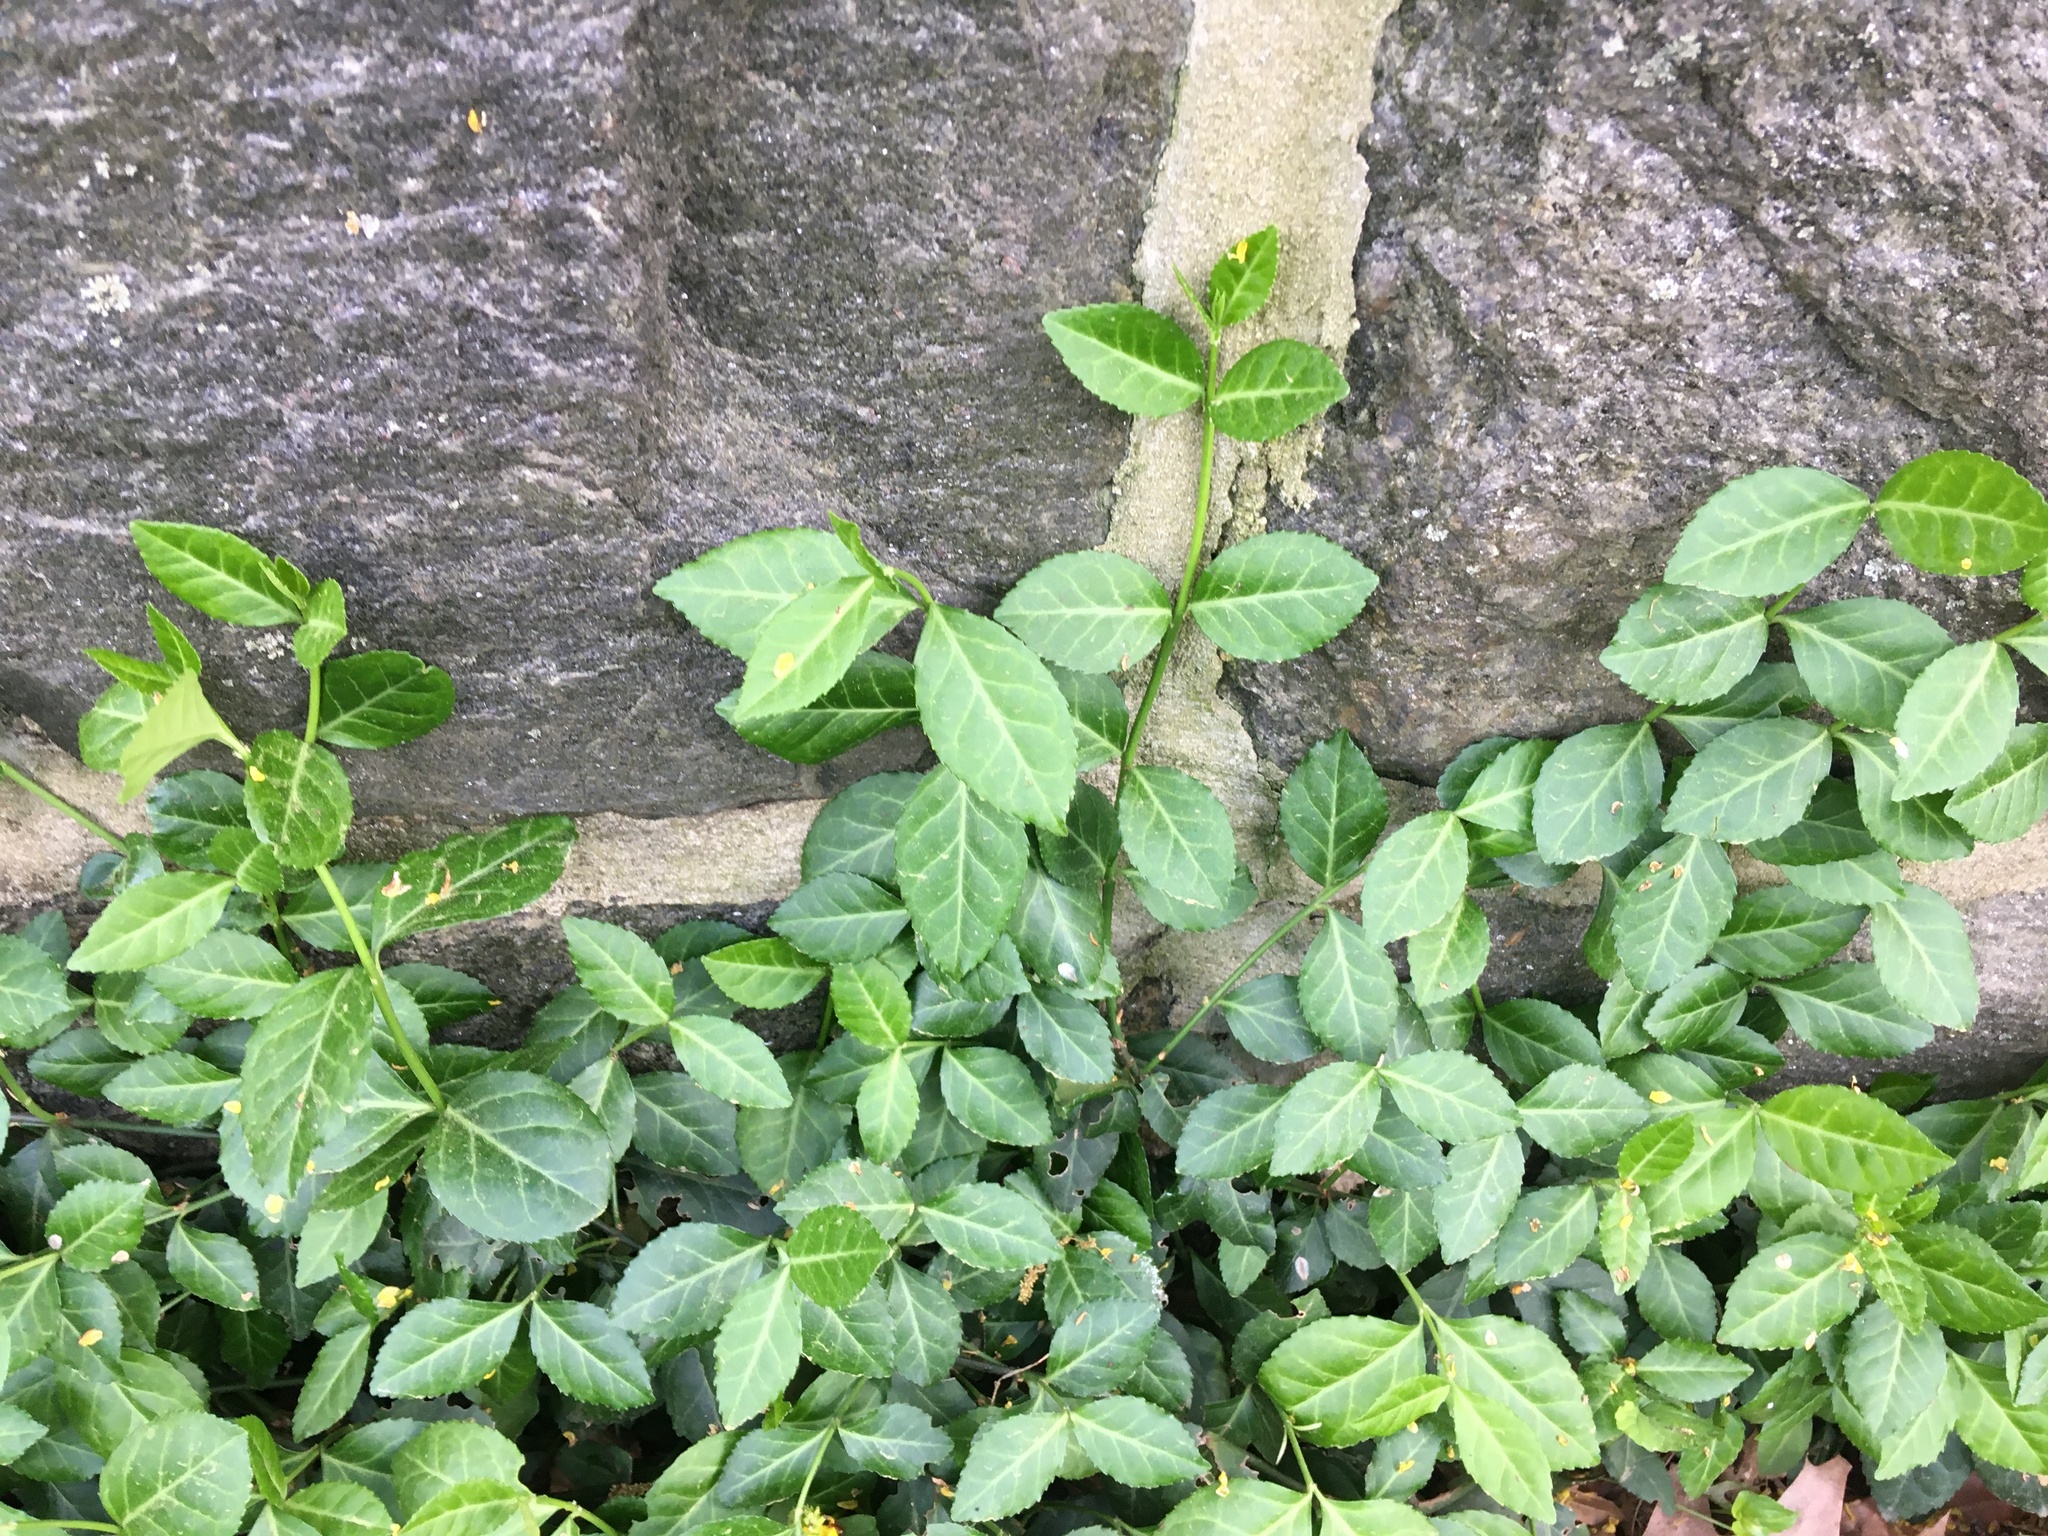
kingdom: Plantae
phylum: Tracheophyta
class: Magnoliopsida
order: Celastrales
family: Celastraceae
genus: Euonymus
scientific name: Euonymus fortunei
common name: Climbing euonymus
